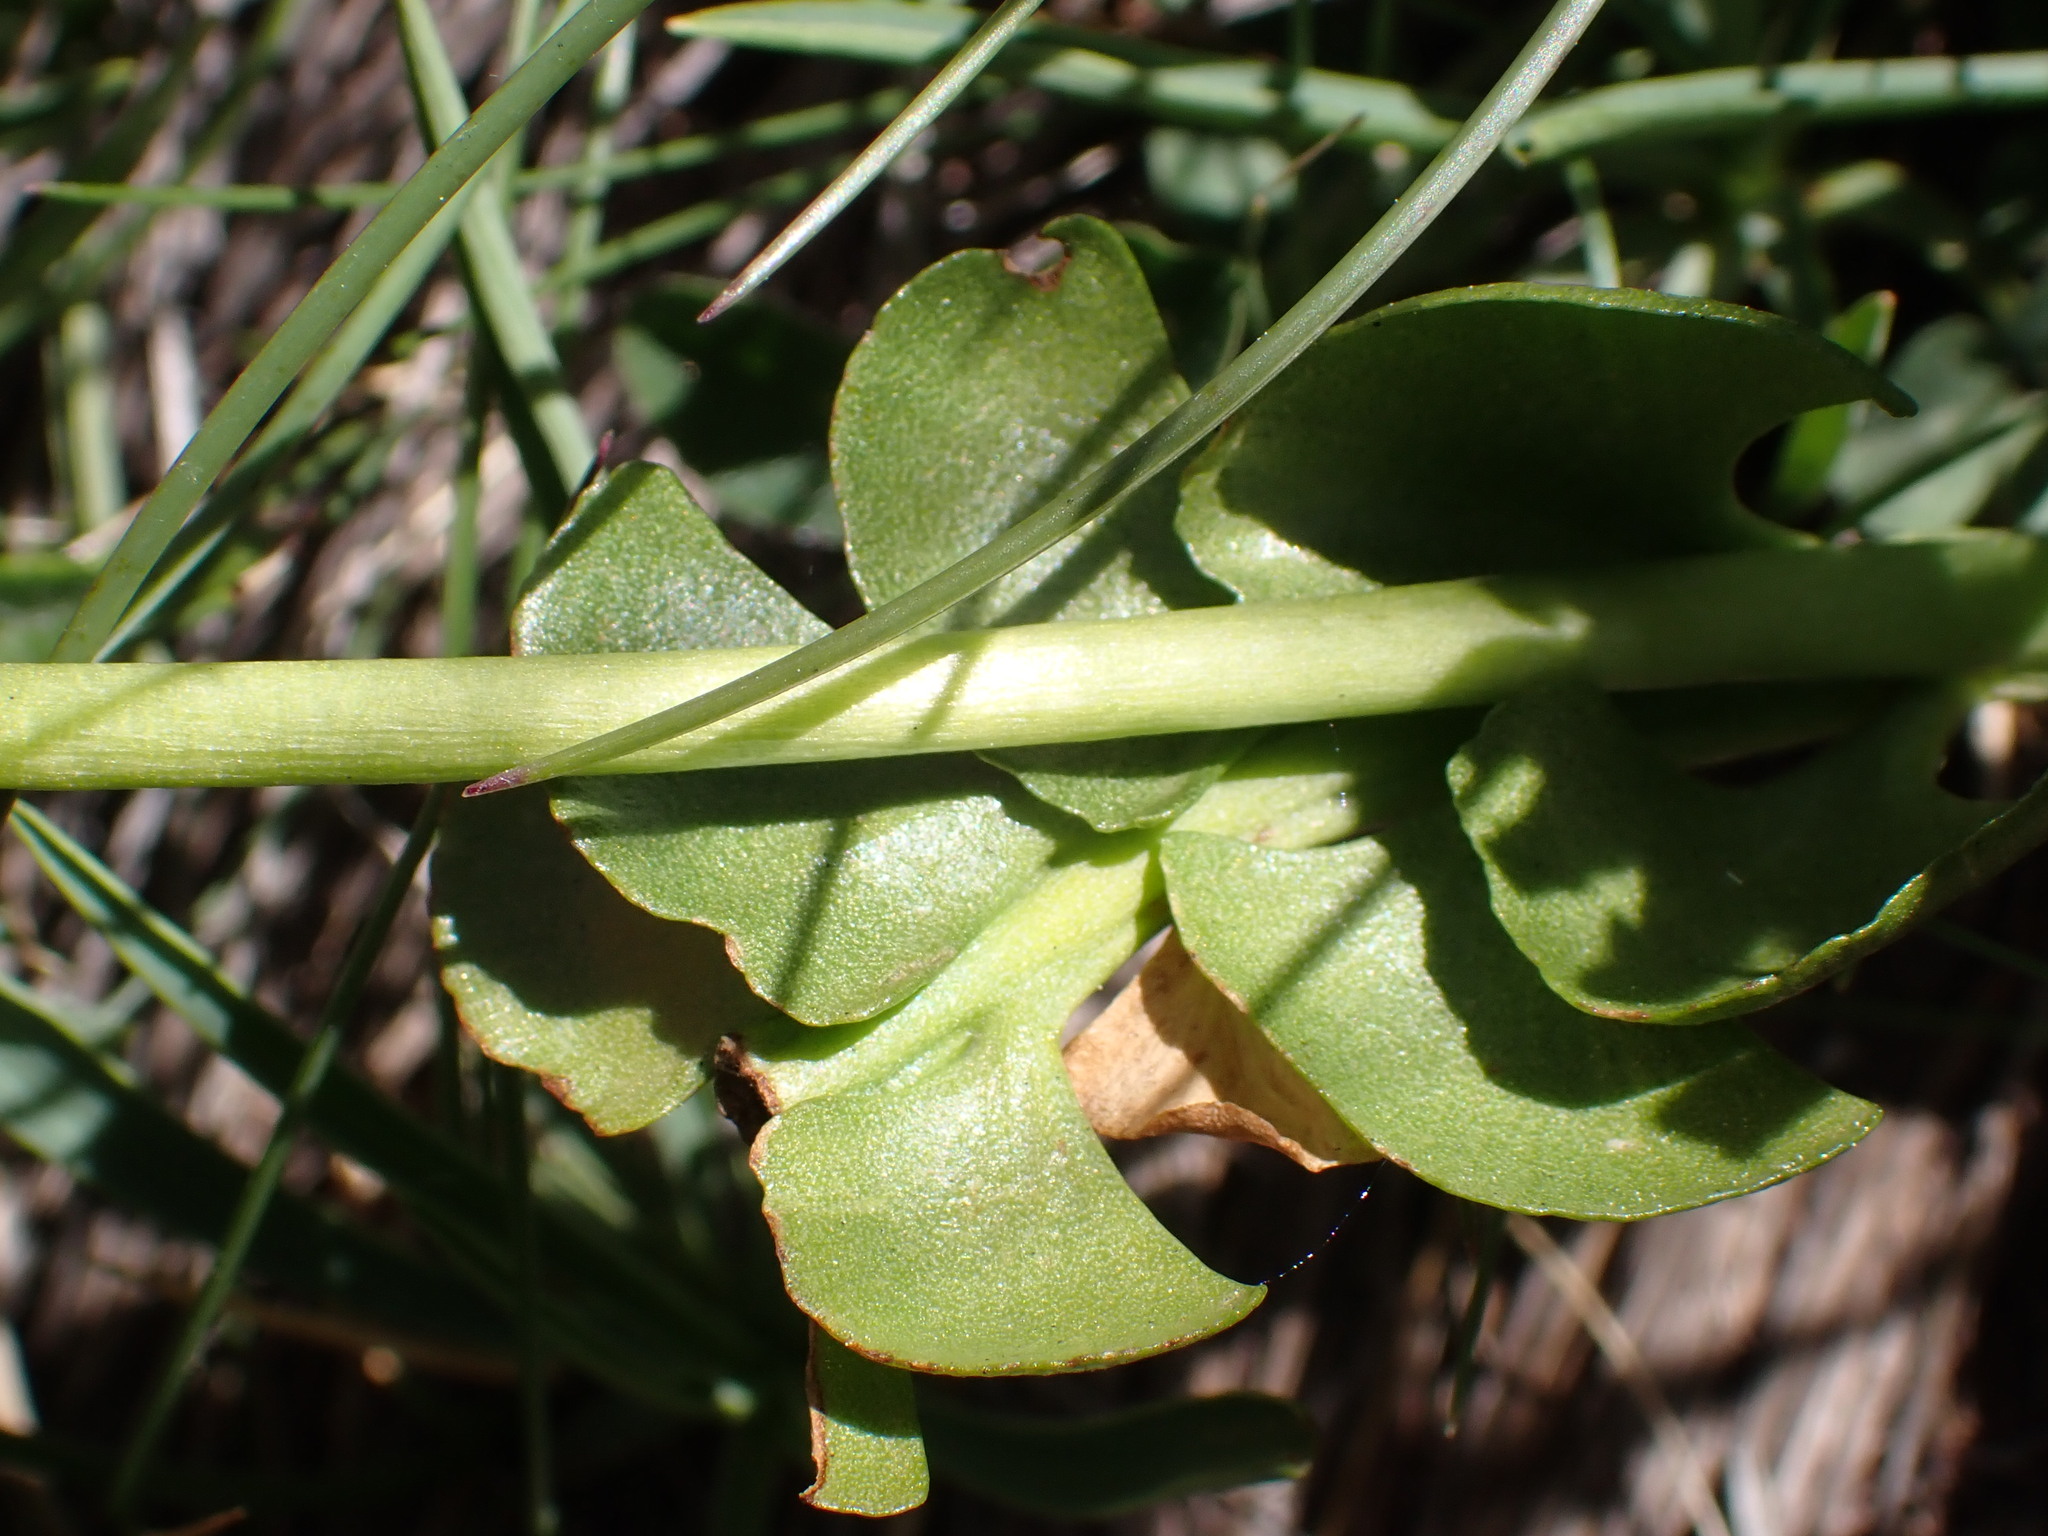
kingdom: Plantae
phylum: Tracheophyta
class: Polypodiopsida
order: Ophioglossales
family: Ophioglossaceae
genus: Botrychium
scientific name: Botrychium lunaria
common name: Moonwort
